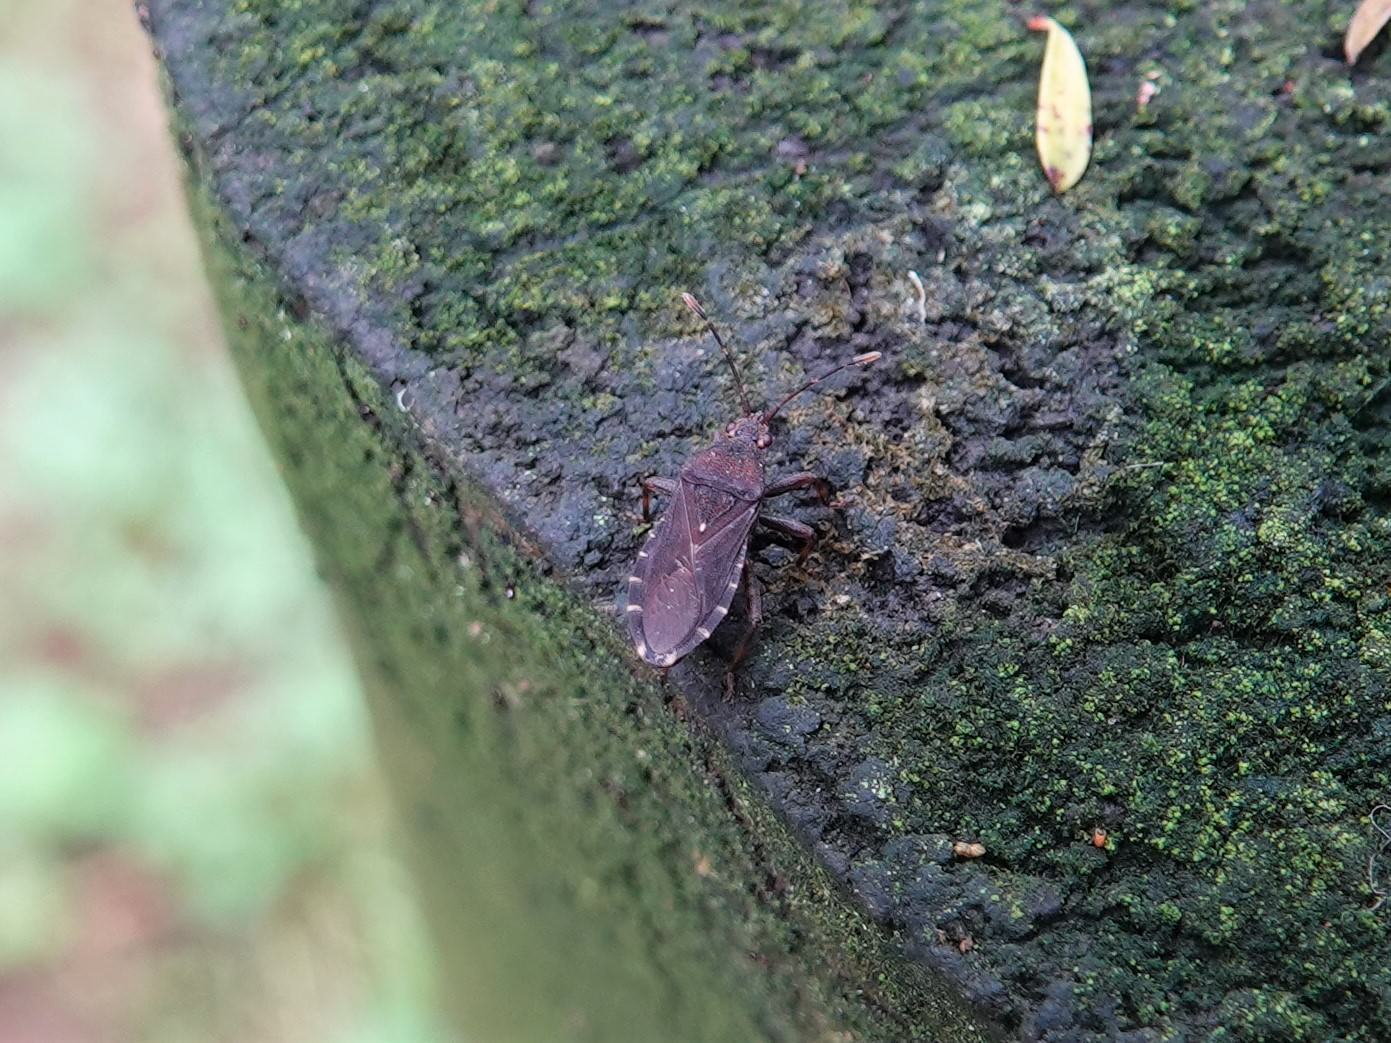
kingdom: Animalia
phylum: Arthropoda
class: Insecta
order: Hemiptera
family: Coreidae
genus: Acantholybas
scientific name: Acantholybas brunneus
